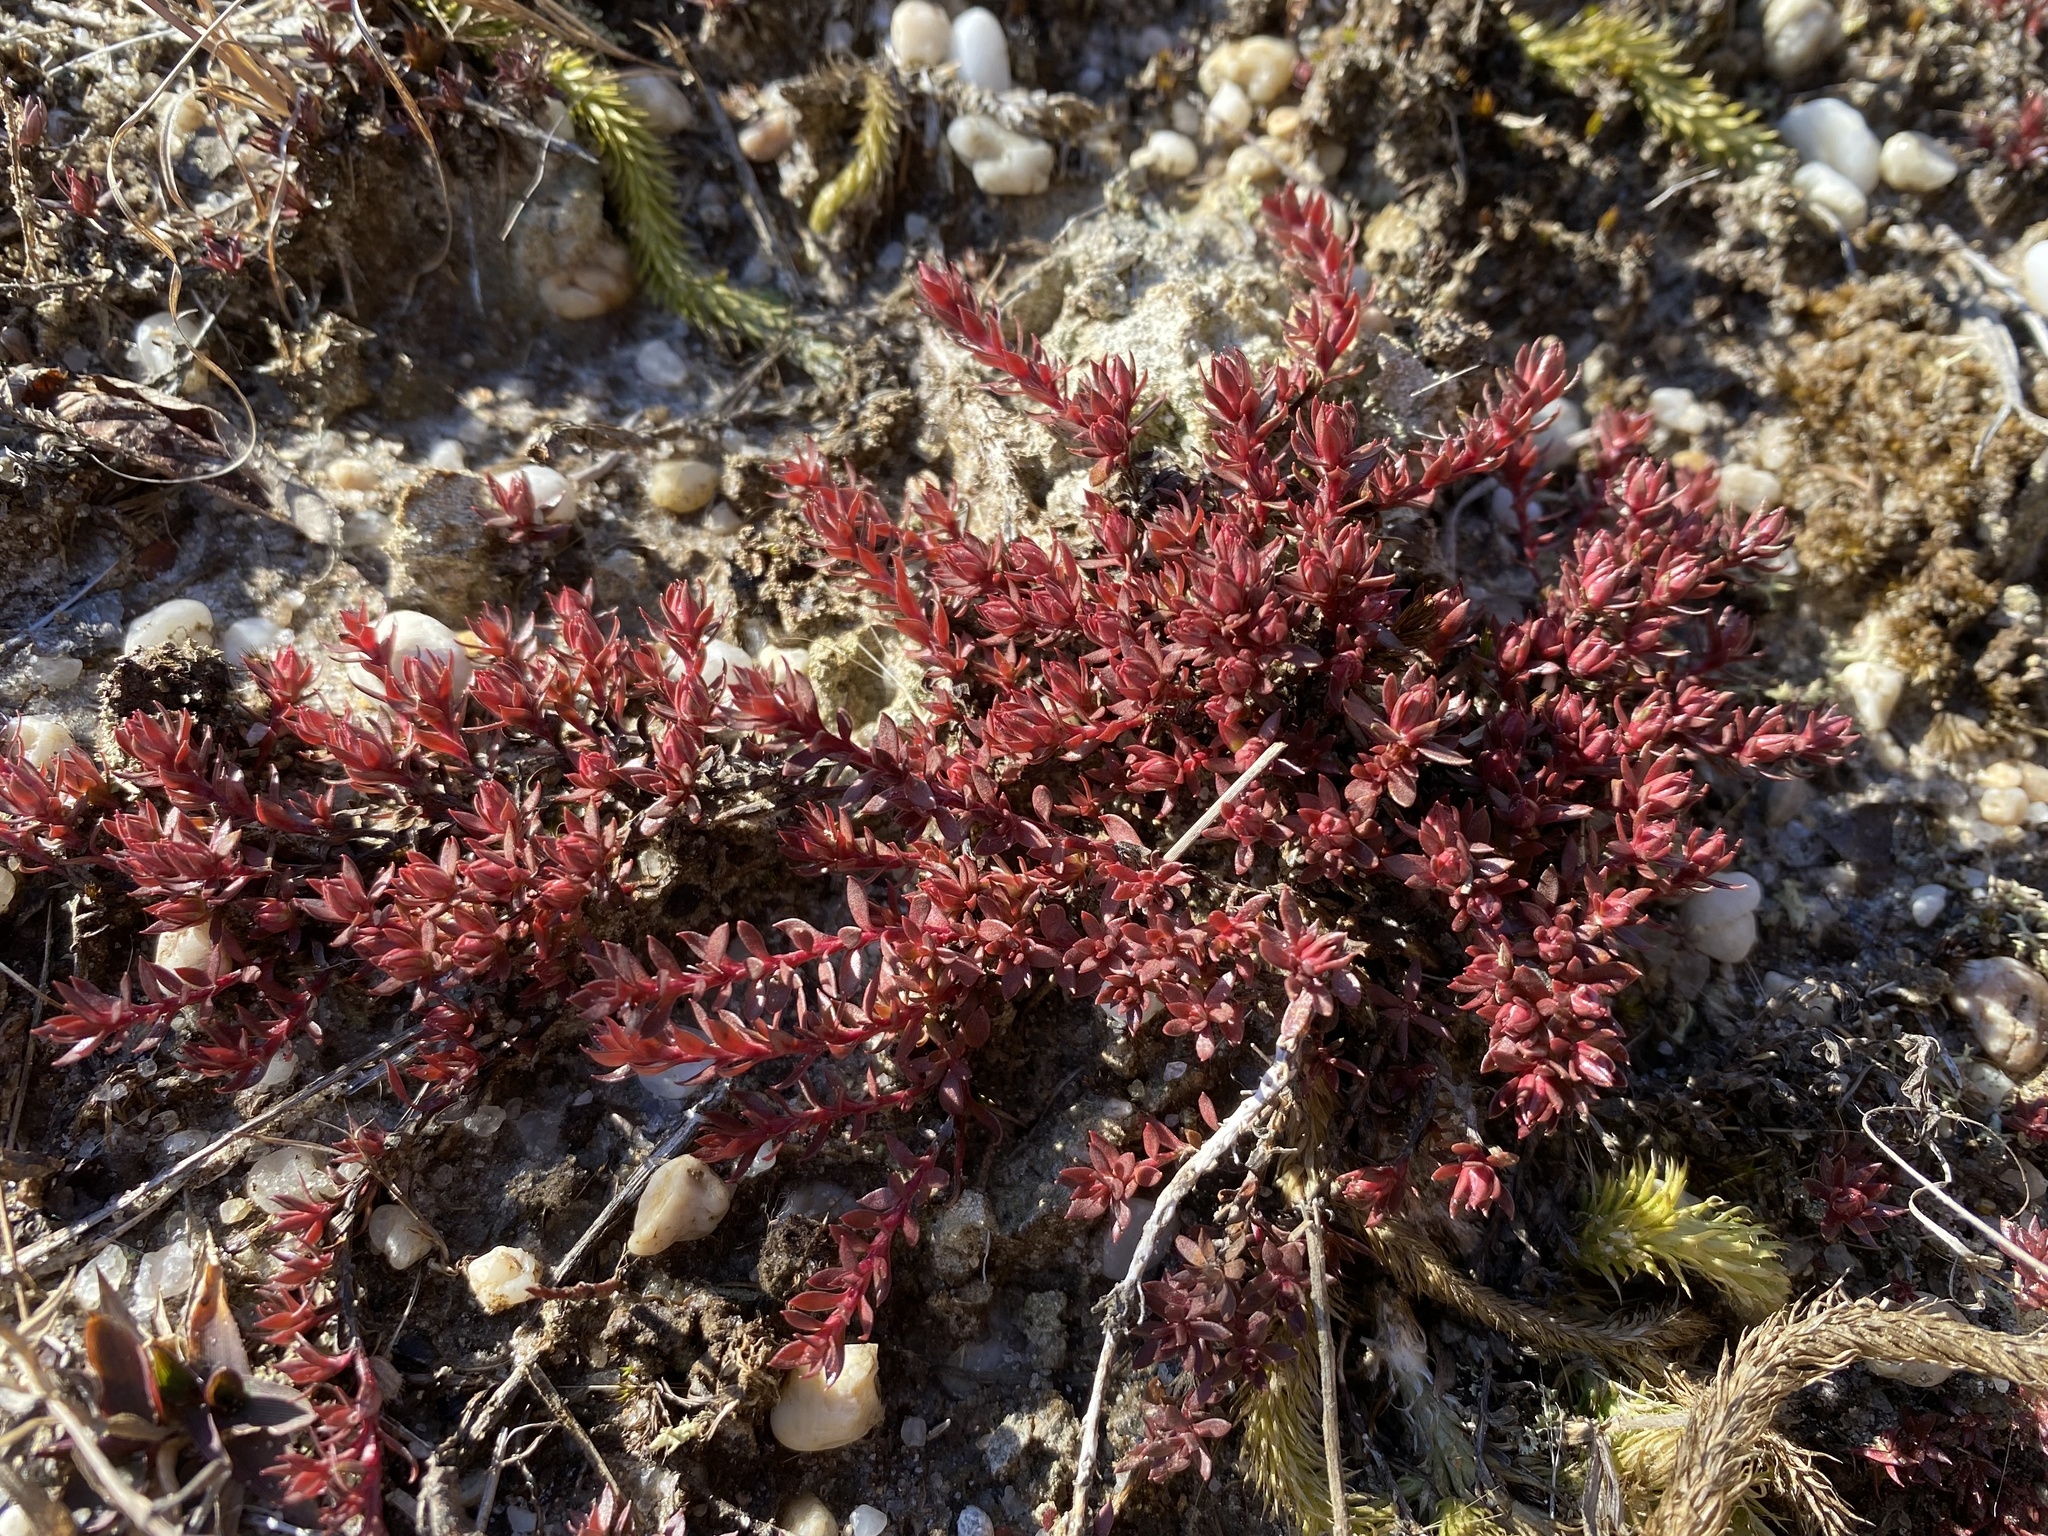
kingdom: Plantae
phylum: Tracheophyta
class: Magnoliopsida
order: Ericales
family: Diapensiaceae
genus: Pyxidanthera
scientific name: Pyxidanthera barbulata
